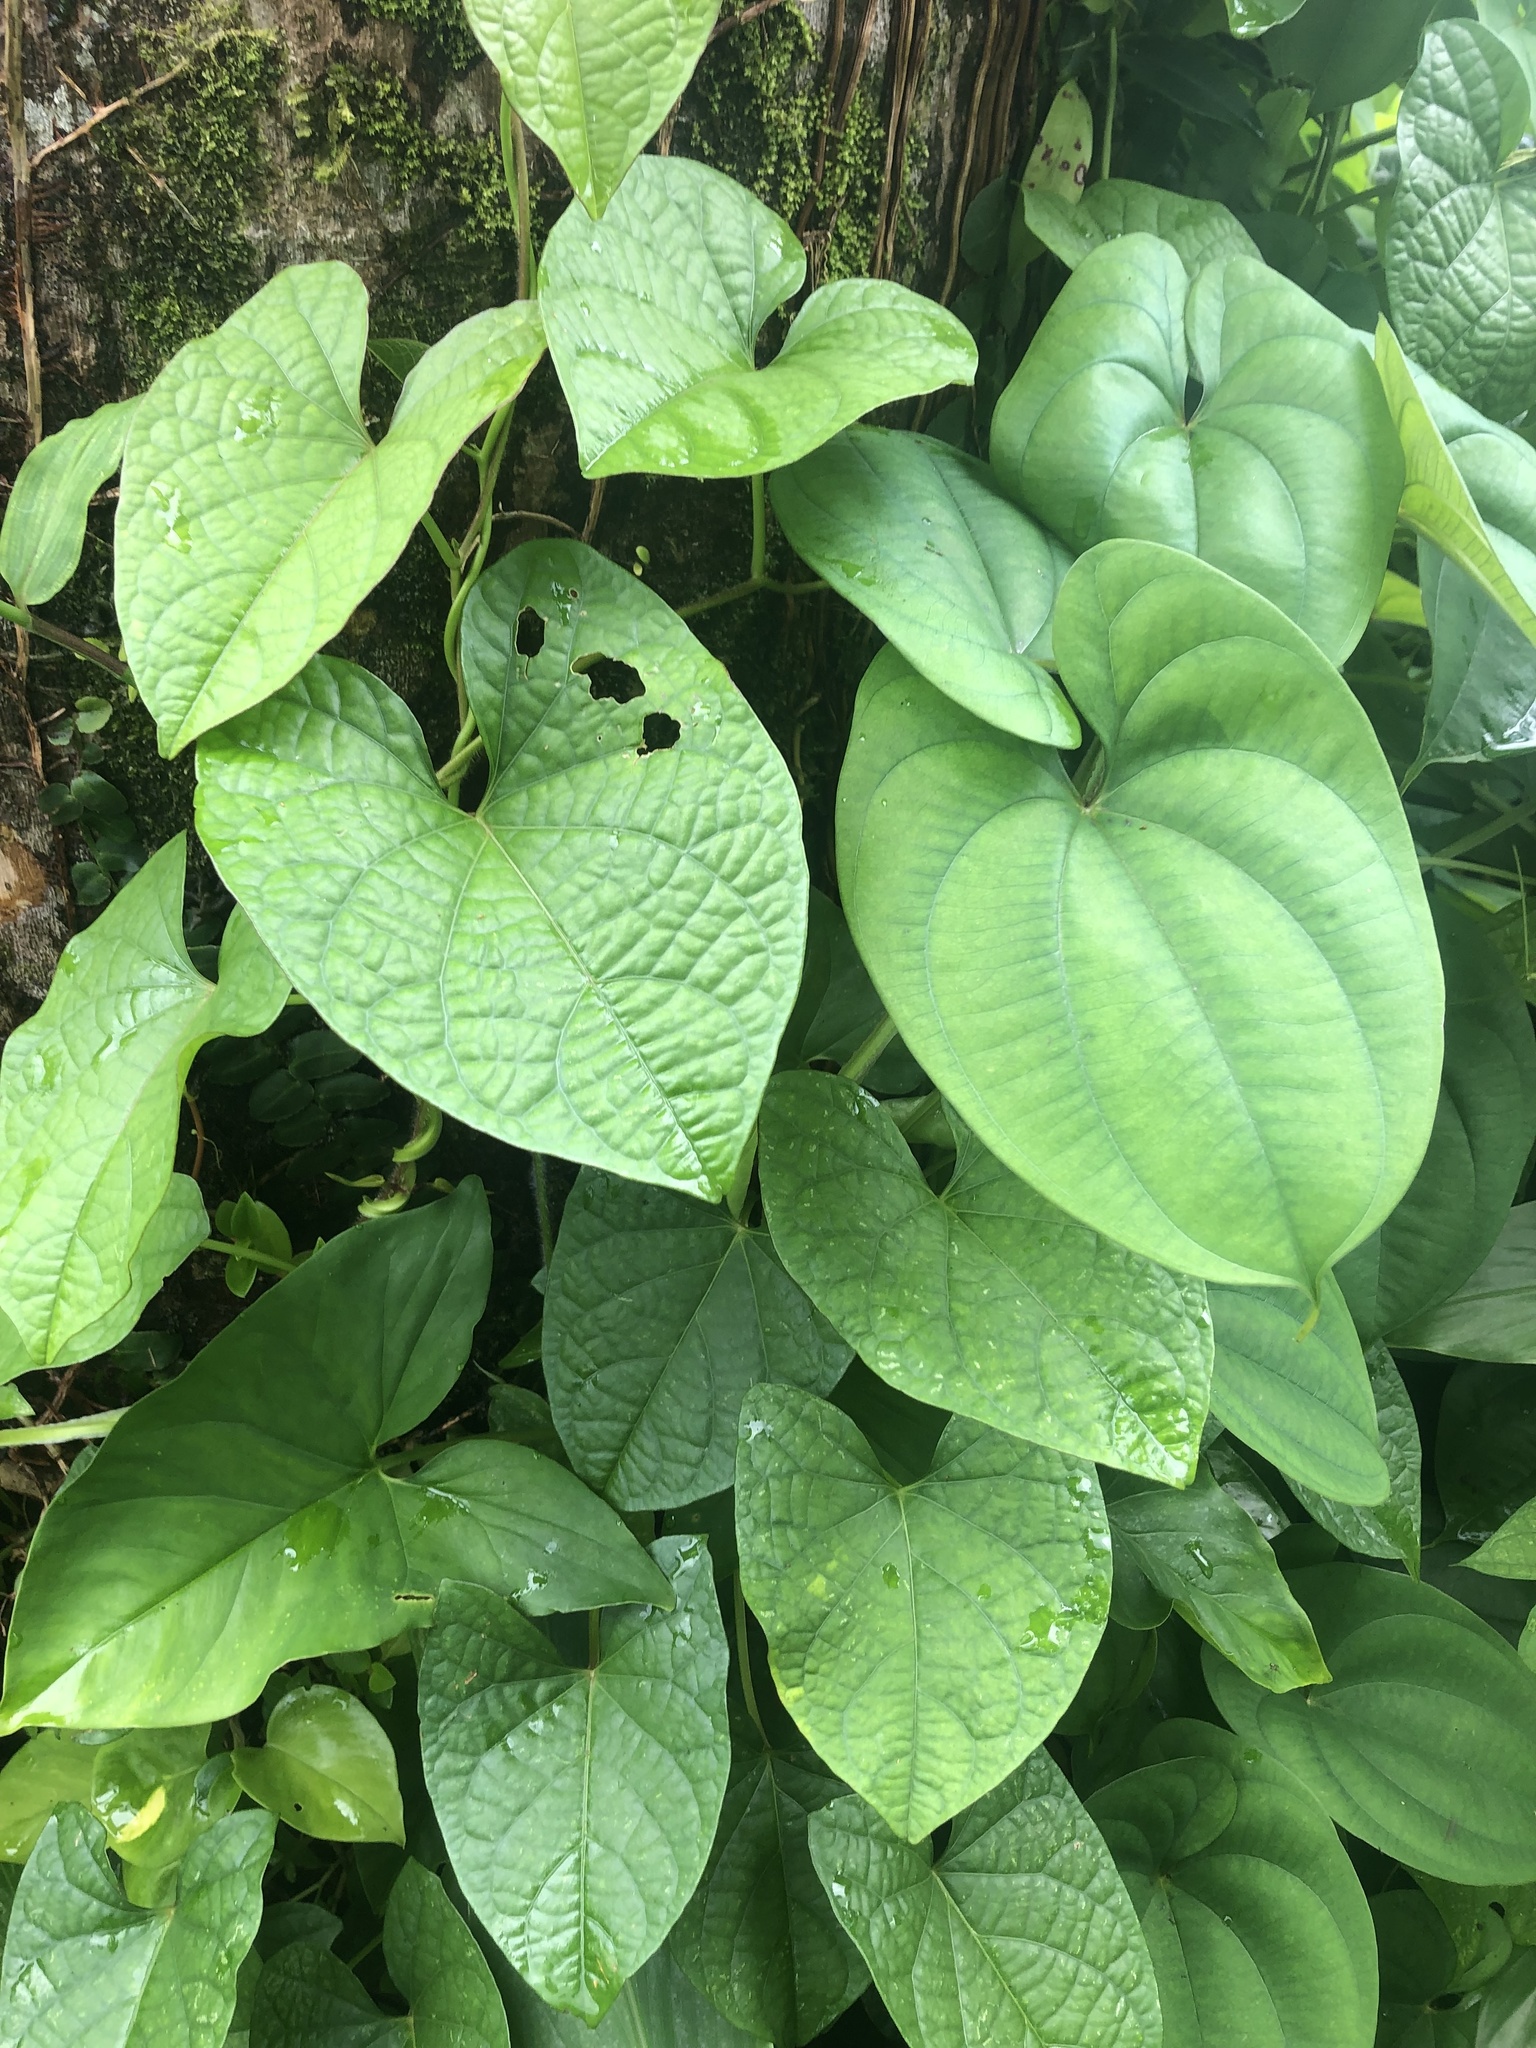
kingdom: Plantae
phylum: Tracheophyta
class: Liliopsida
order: Dioscoreales
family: Dioscoreaceae
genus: Dioscorea
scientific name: Dioscorea alata
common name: Water yam
